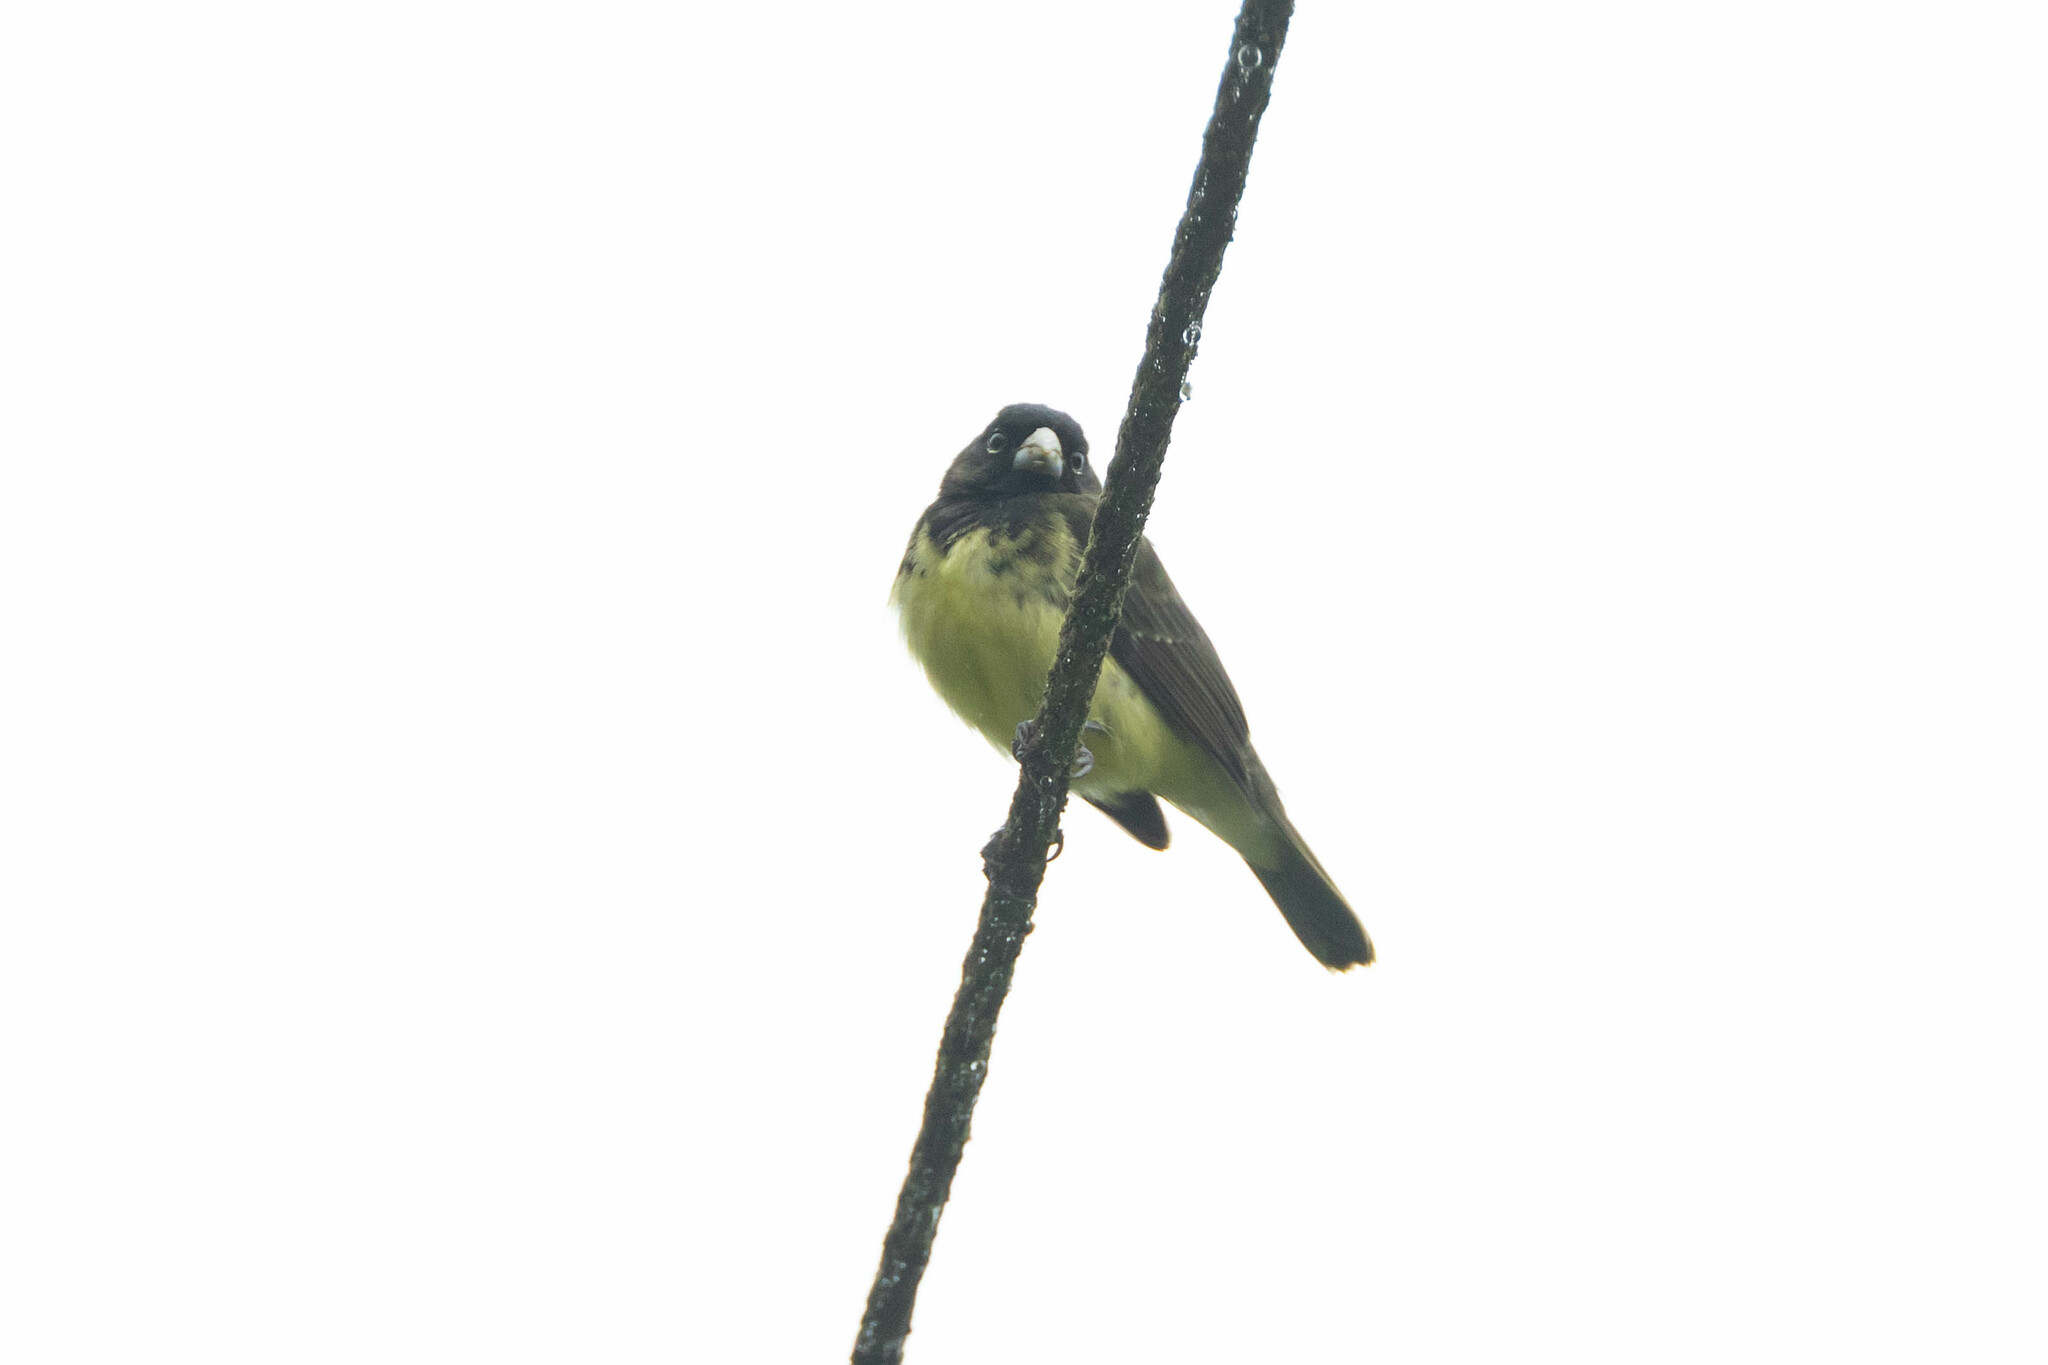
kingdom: Animalia
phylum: Chordata
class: Aves
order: Passeriformes
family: Thraupidae
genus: Sporophila
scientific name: Sporophila nigricollis
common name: Yellow-bellied seedeater
